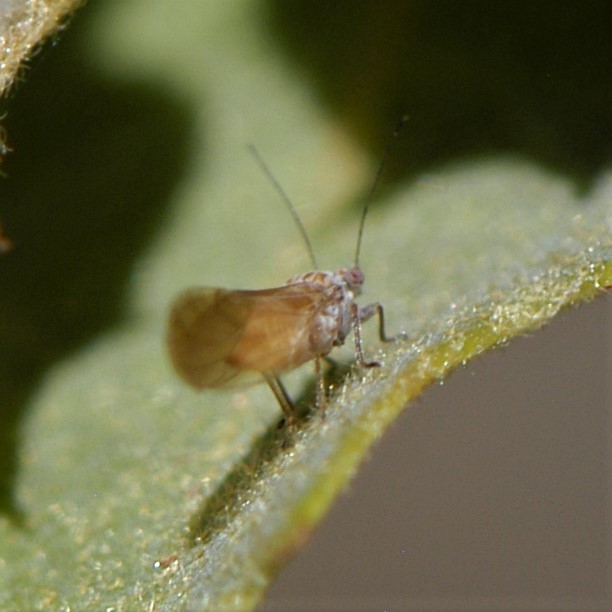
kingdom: Animalia
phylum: Arthropoda
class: Insecta
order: Hemiptera
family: Psyllidae
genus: Purshivora
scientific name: Purshivora
